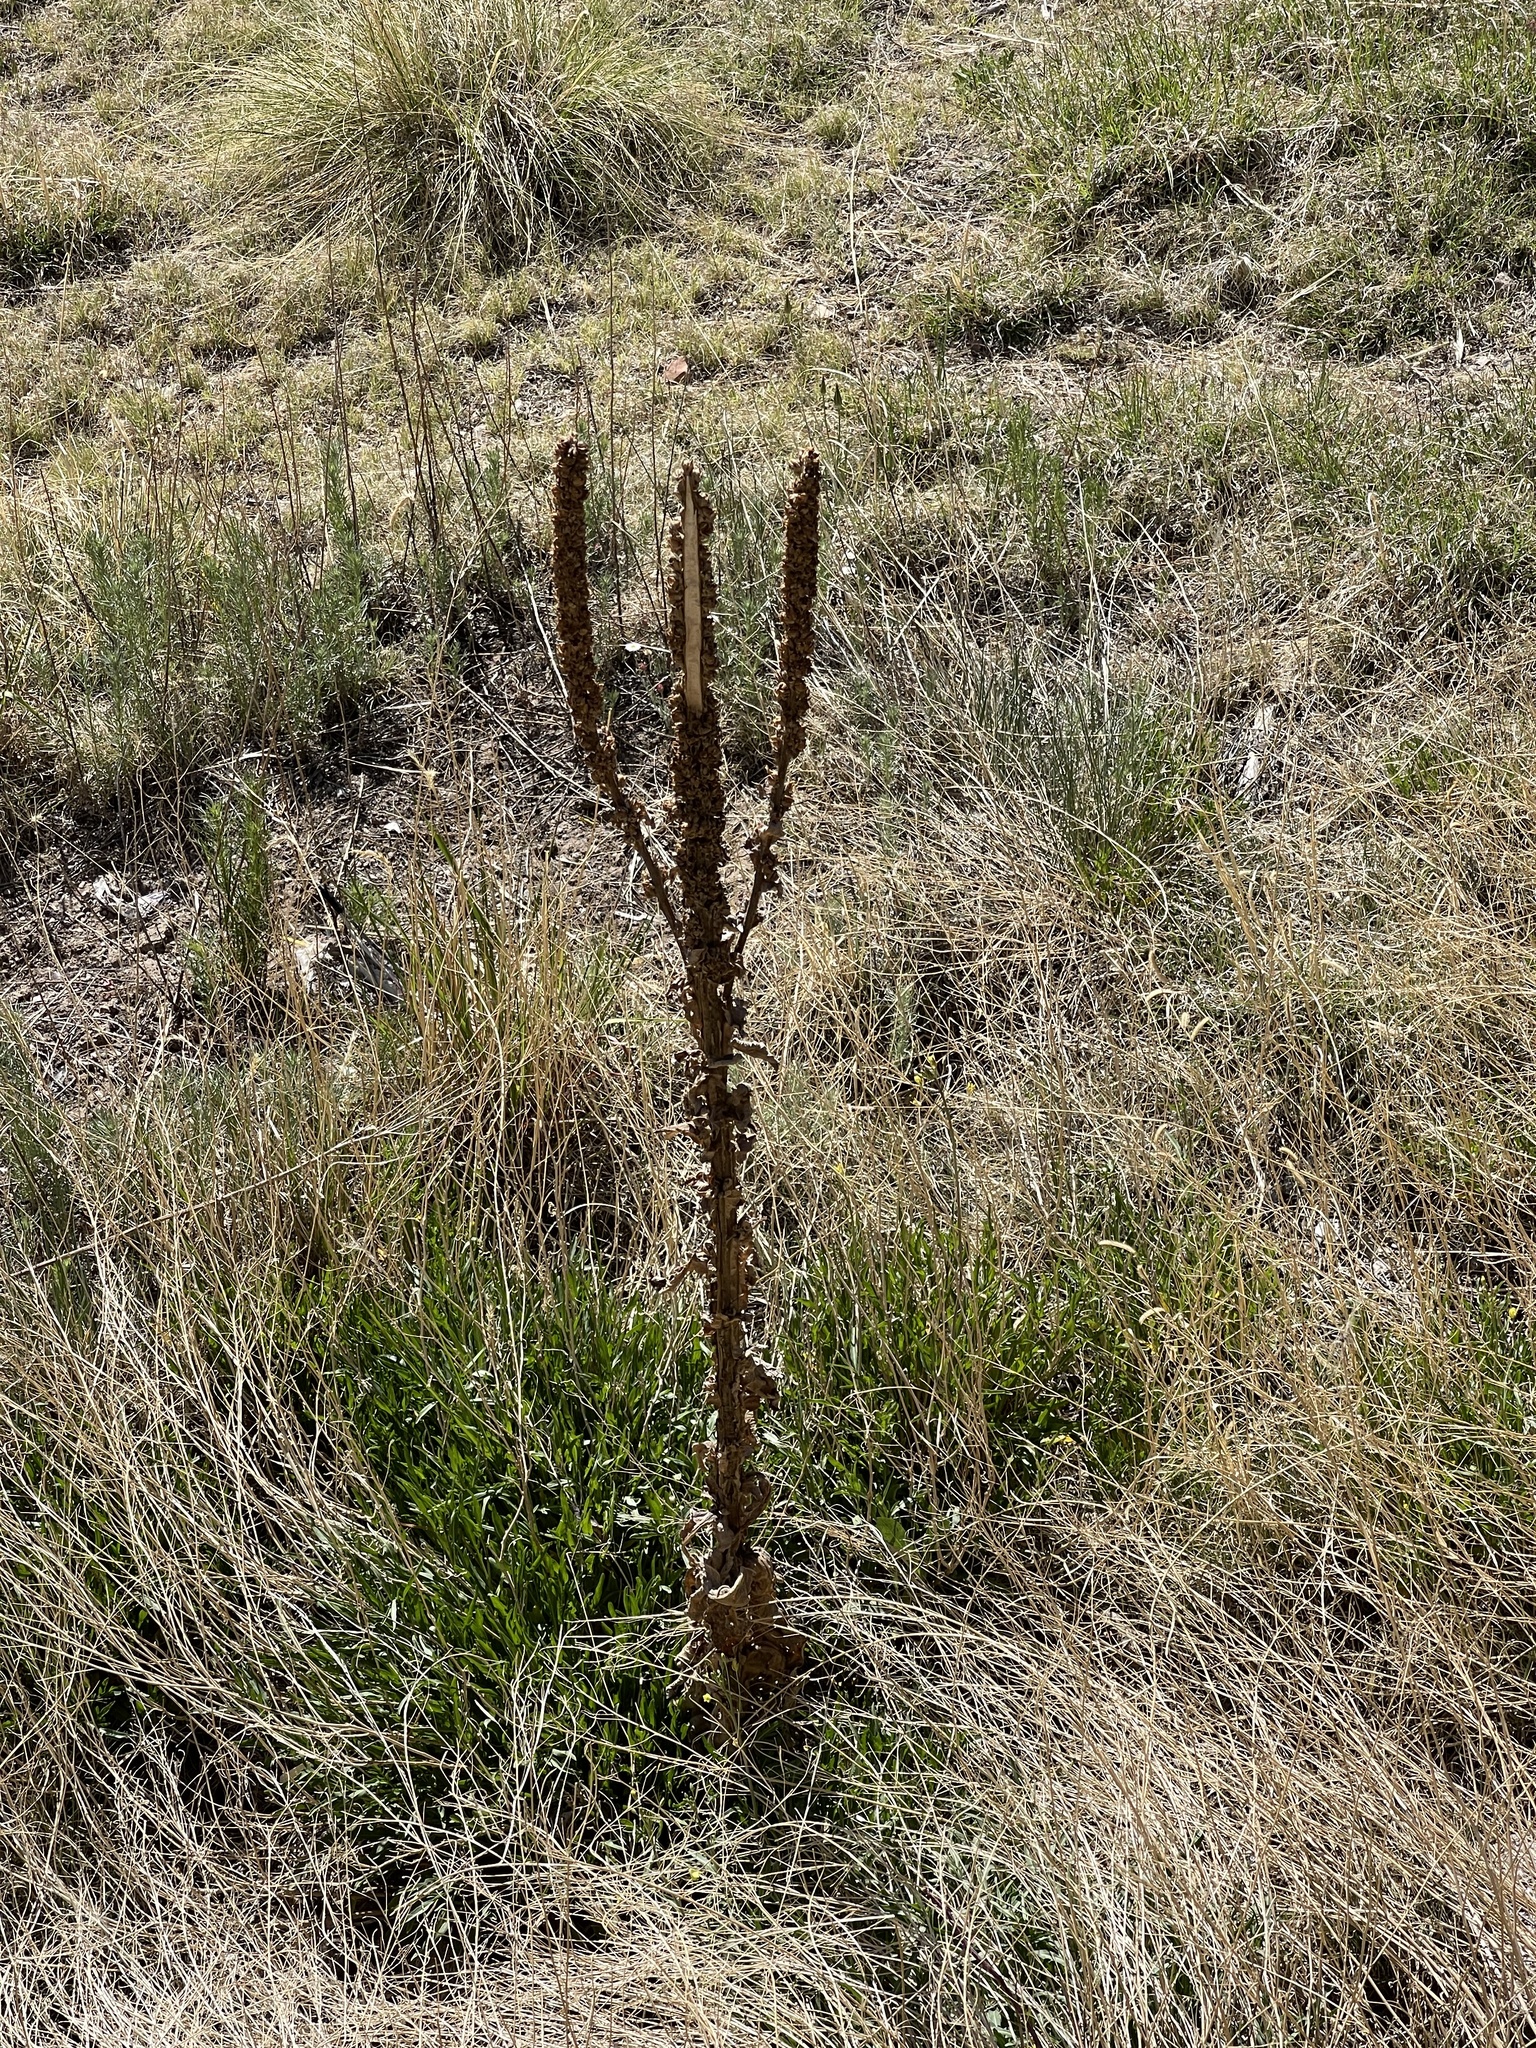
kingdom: Plantae
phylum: Tracheophyta
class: Magnoliopsida
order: Lamiales
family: Scrophulariaceae
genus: Verbascum
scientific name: Verbascum thapsus
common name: Common mullein
